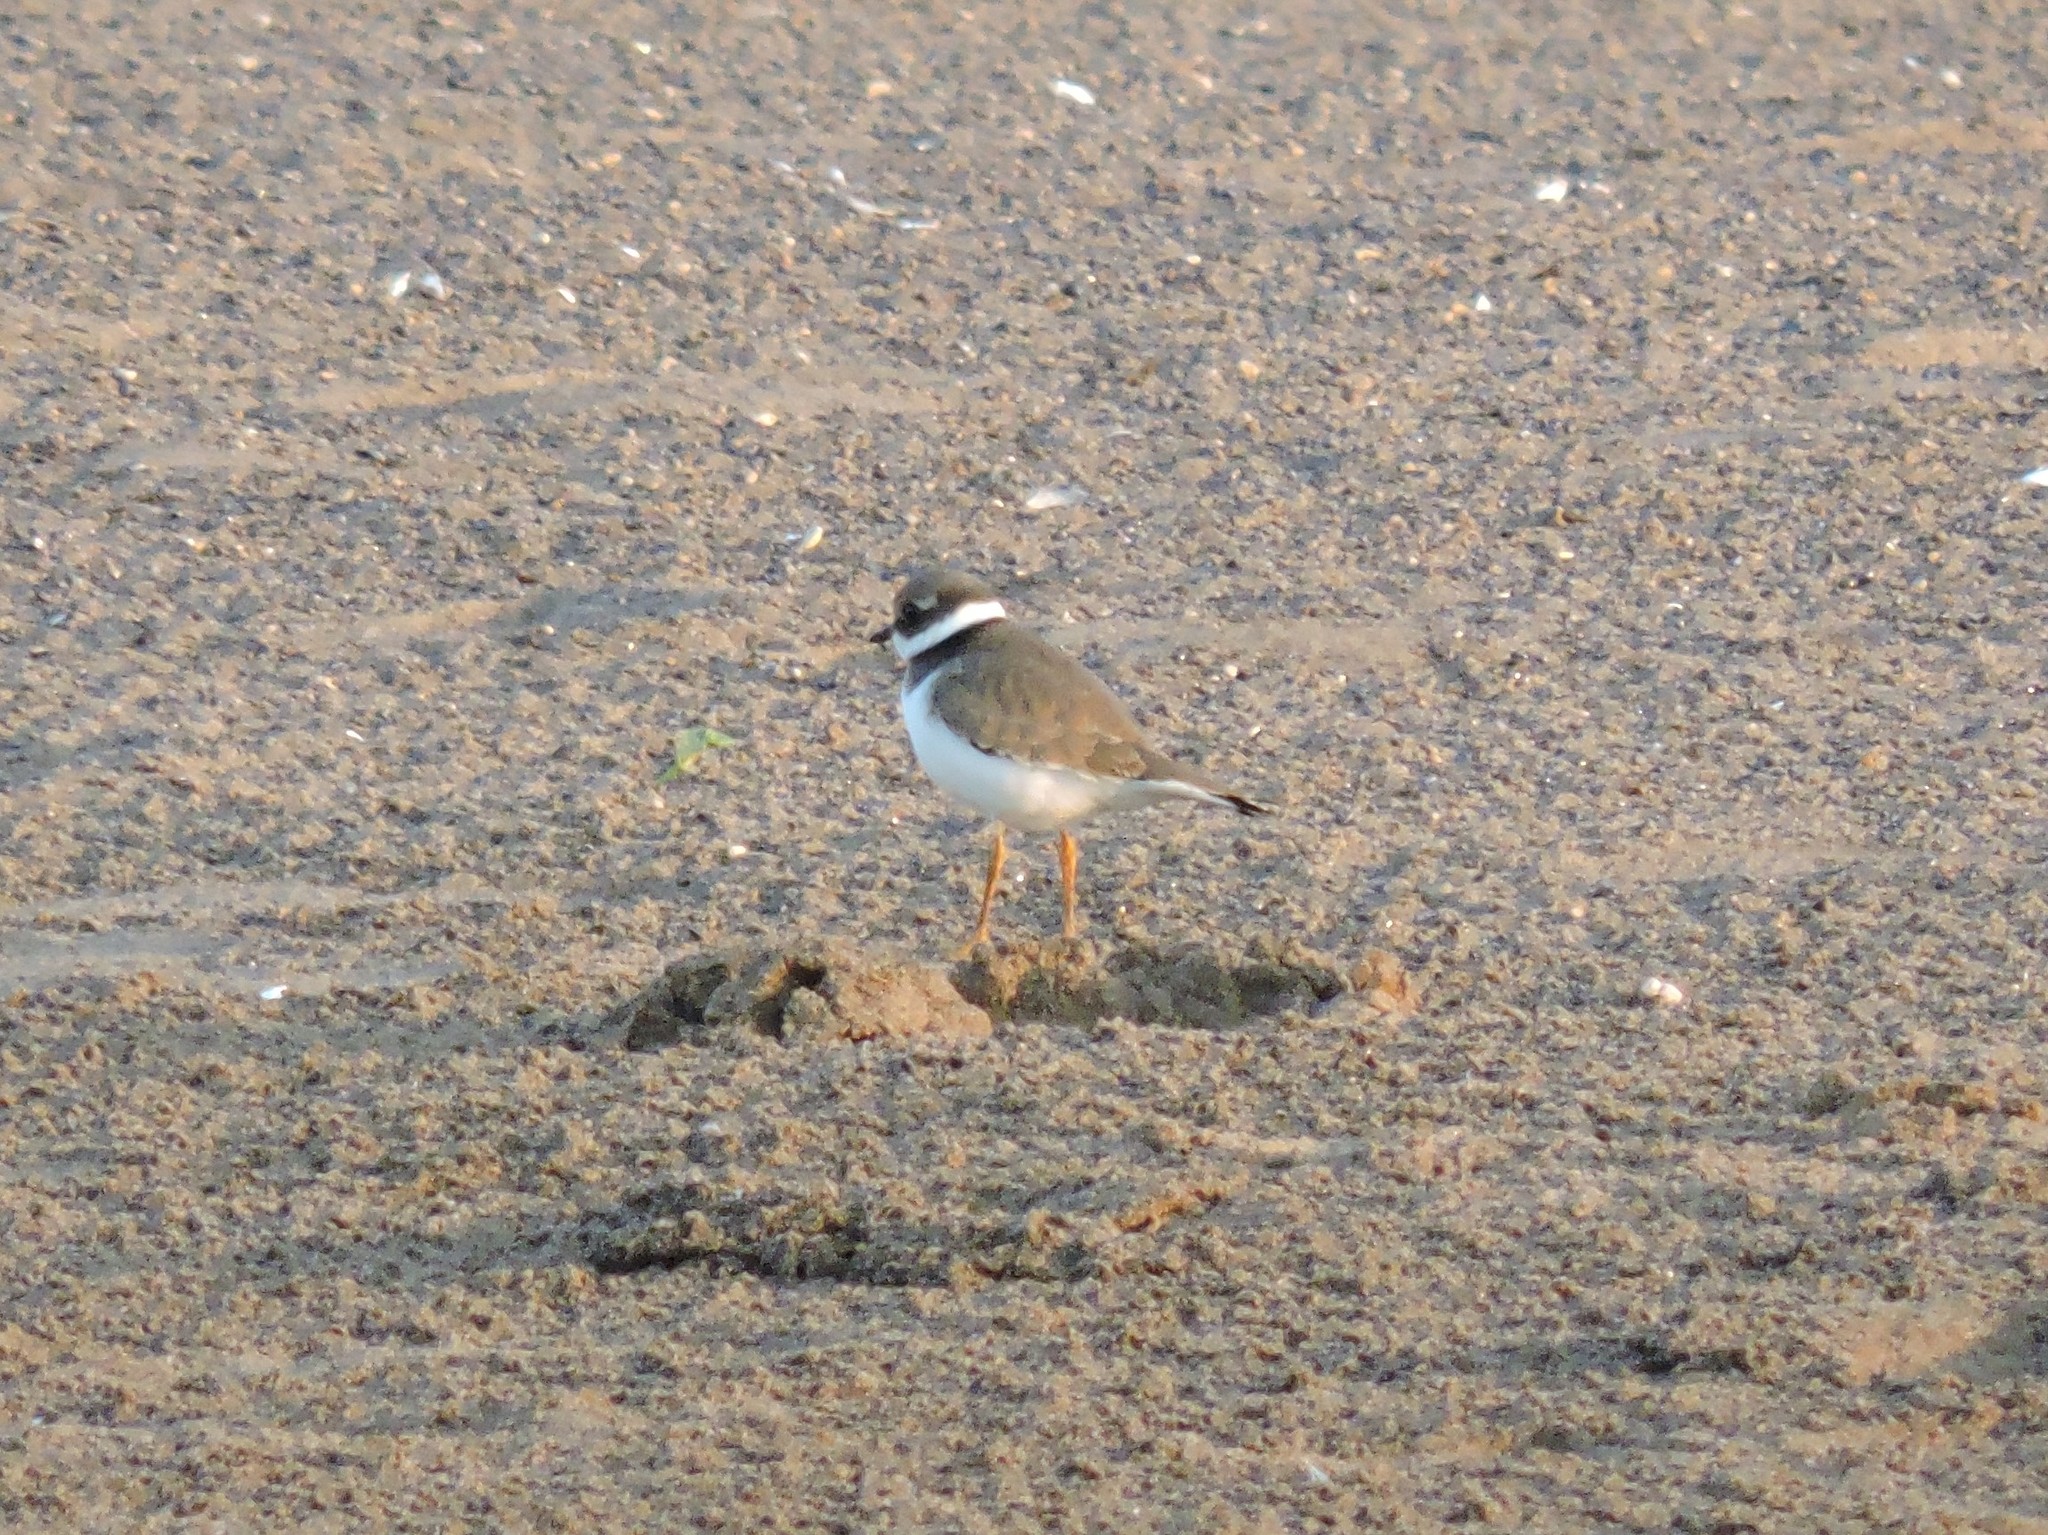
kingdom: Animalia
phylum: Chordata
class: Aves
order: Charadriiformes
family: Charadriidae
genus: Charadrius
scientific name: Charadrius hiaticula
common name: Common ringed plover
